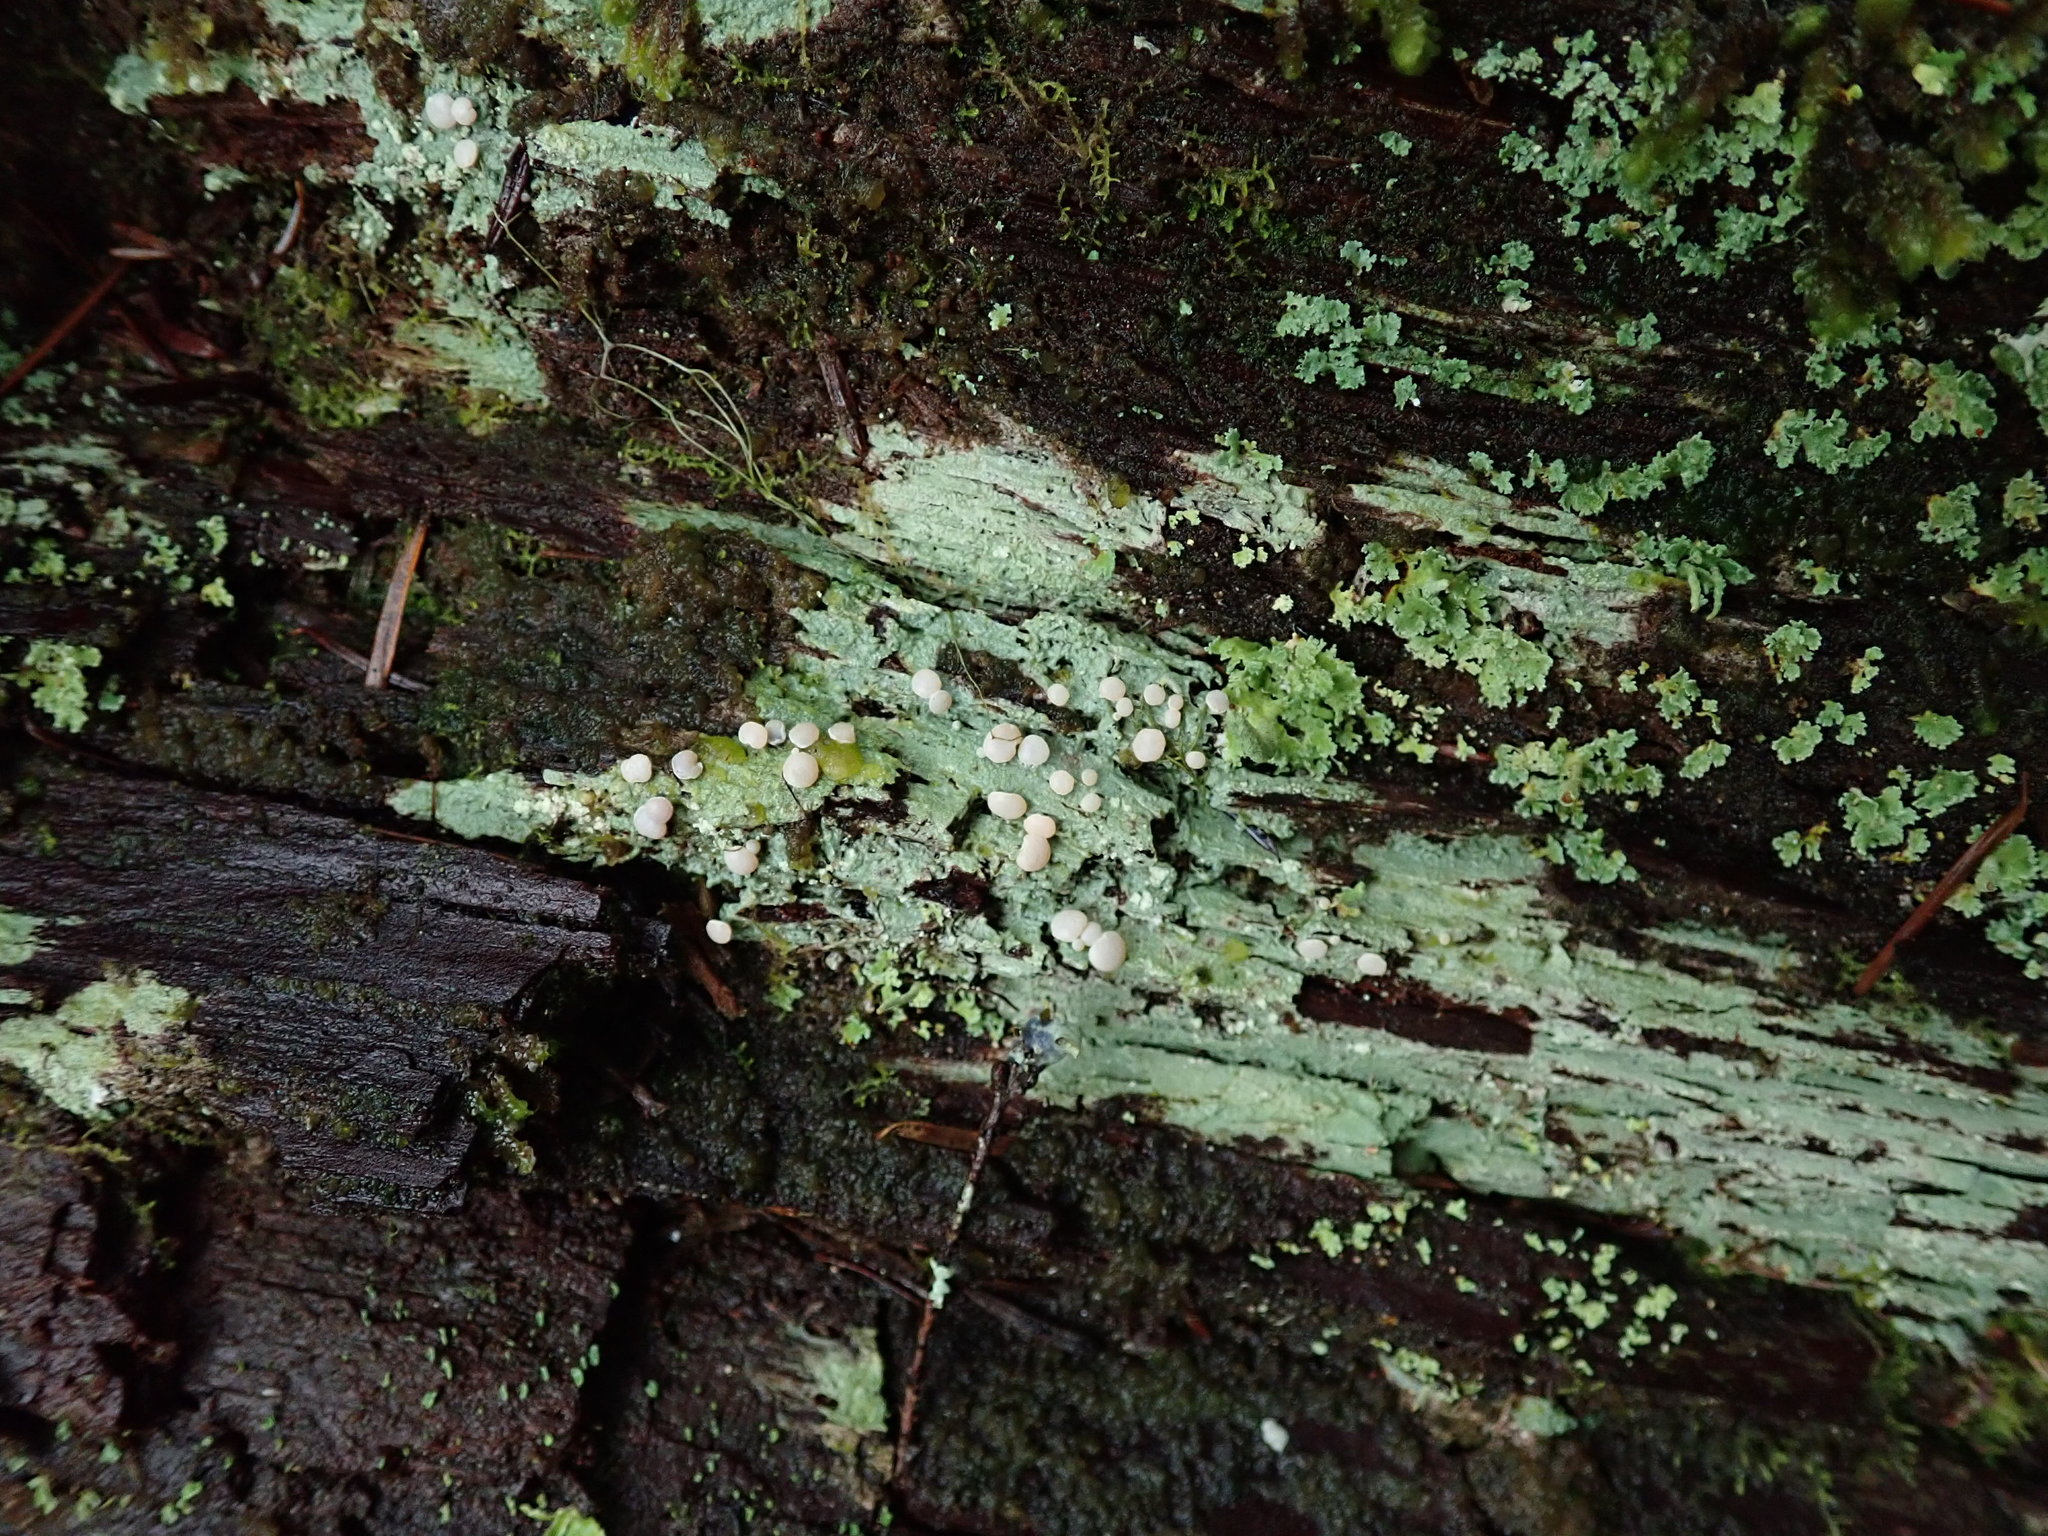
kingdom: Fungi
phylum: Ascomycota
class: Lecanoromycetes
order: Pertusariales
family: Icmadophilaceae
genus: Icmadophila
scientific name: Icmadophila ericetorum
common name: Candy lichen
